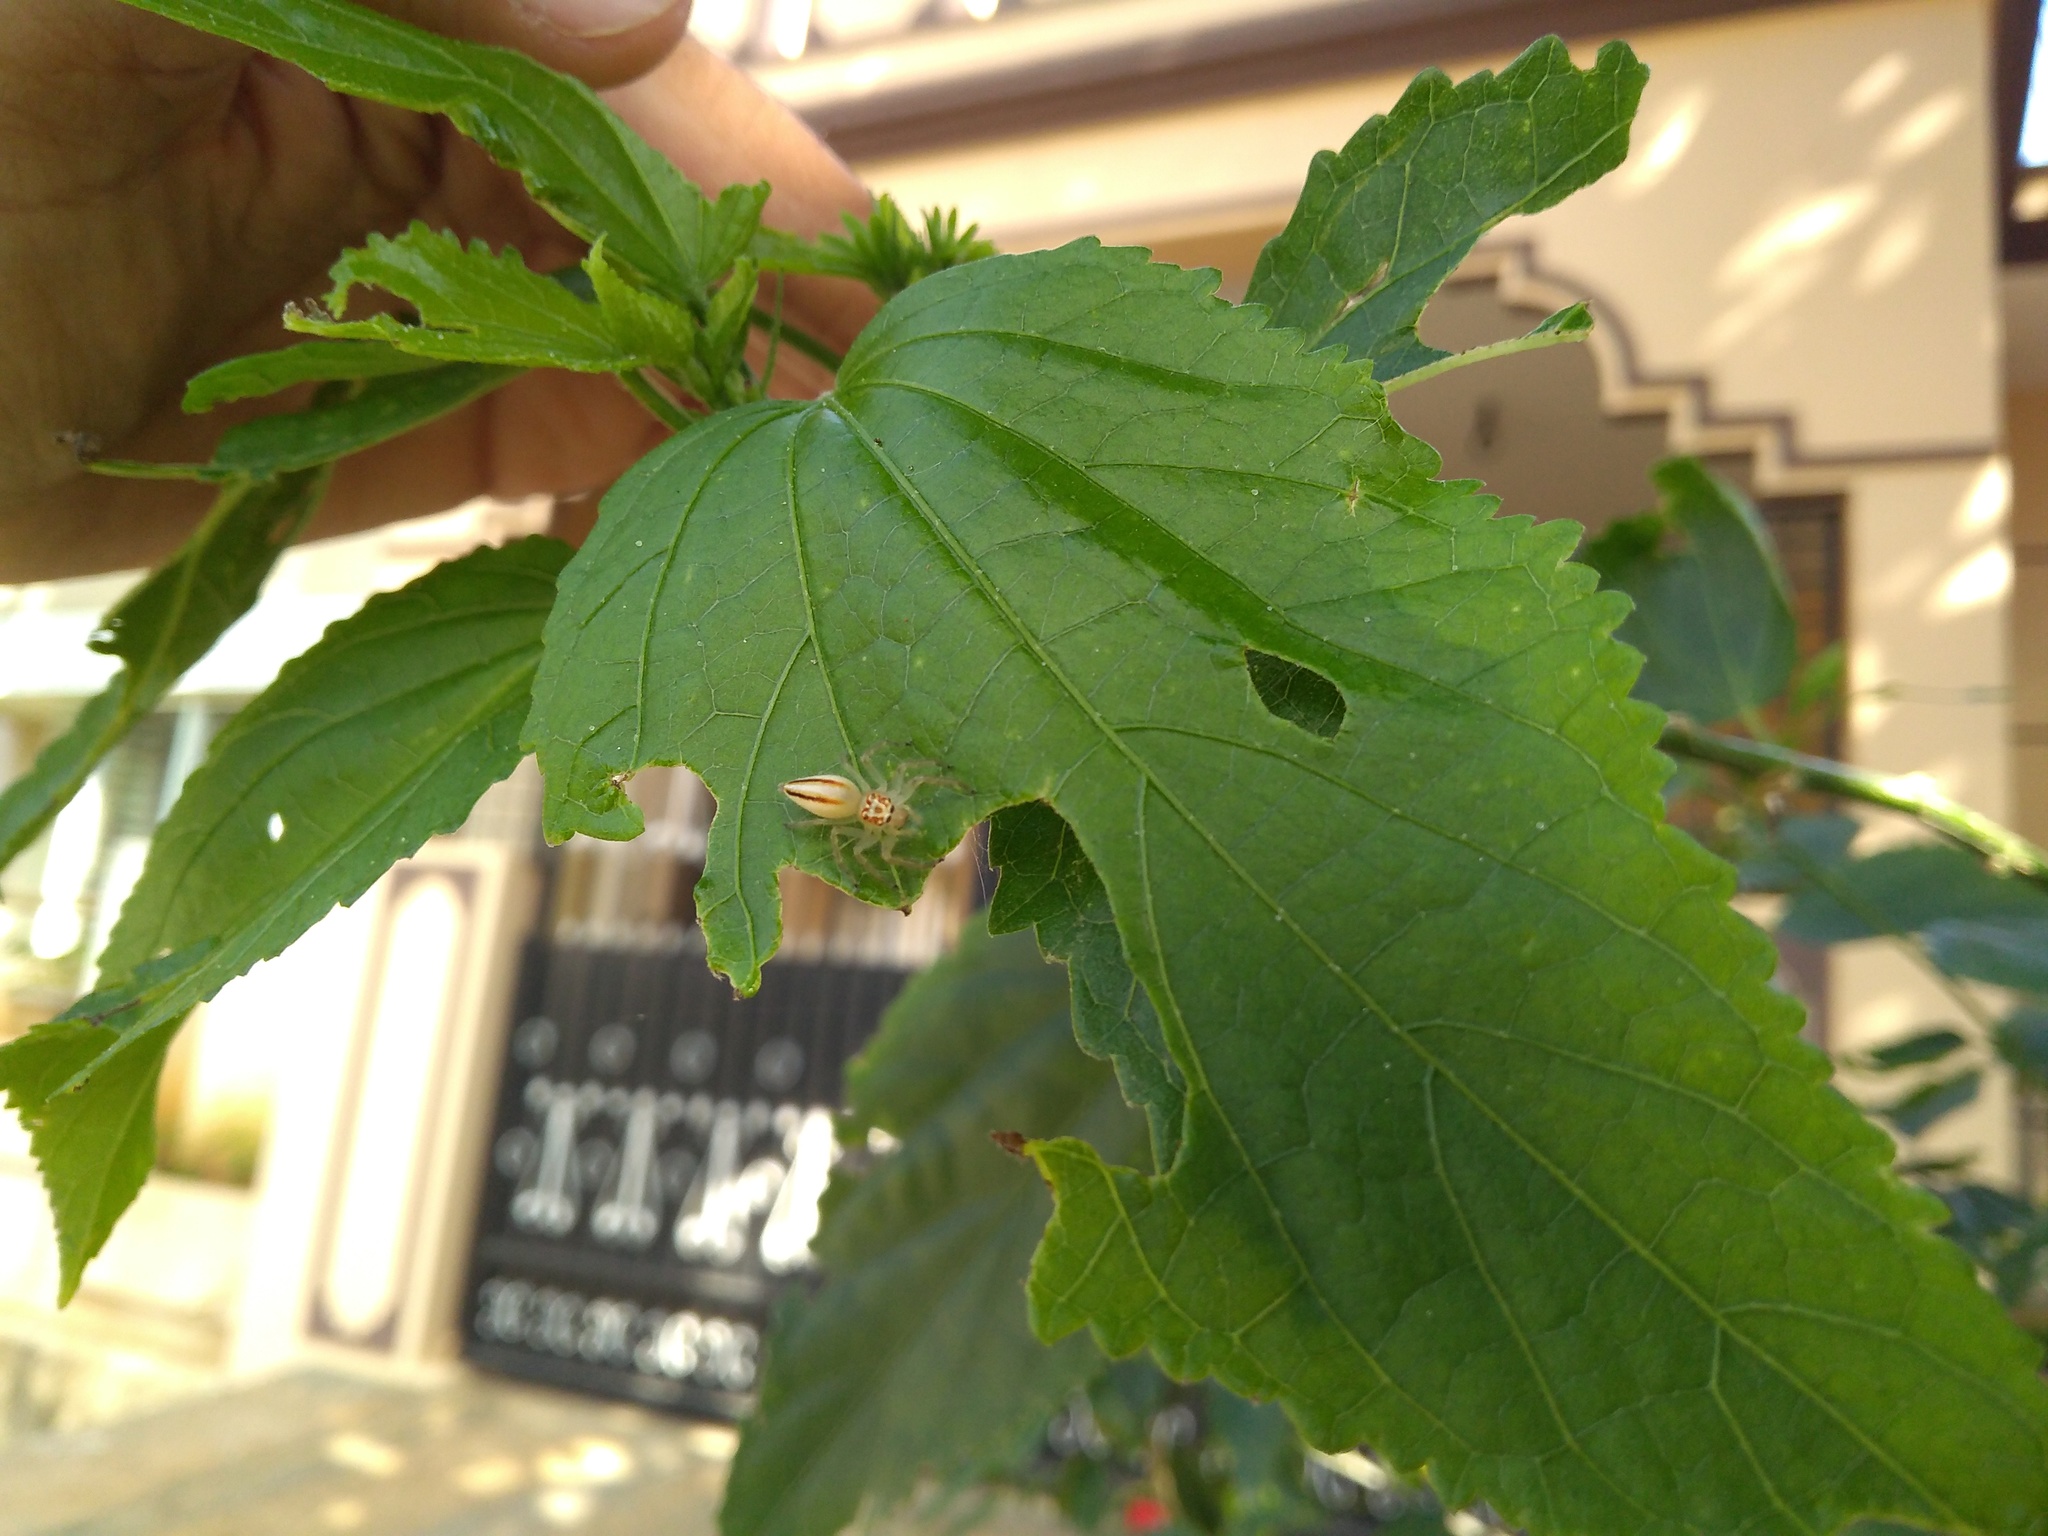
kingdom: Animalia
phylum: Arthropoda
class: Arachnida
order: Araneae
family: Salticidae
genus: Hyllus
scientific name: Hyllus semicupreus
